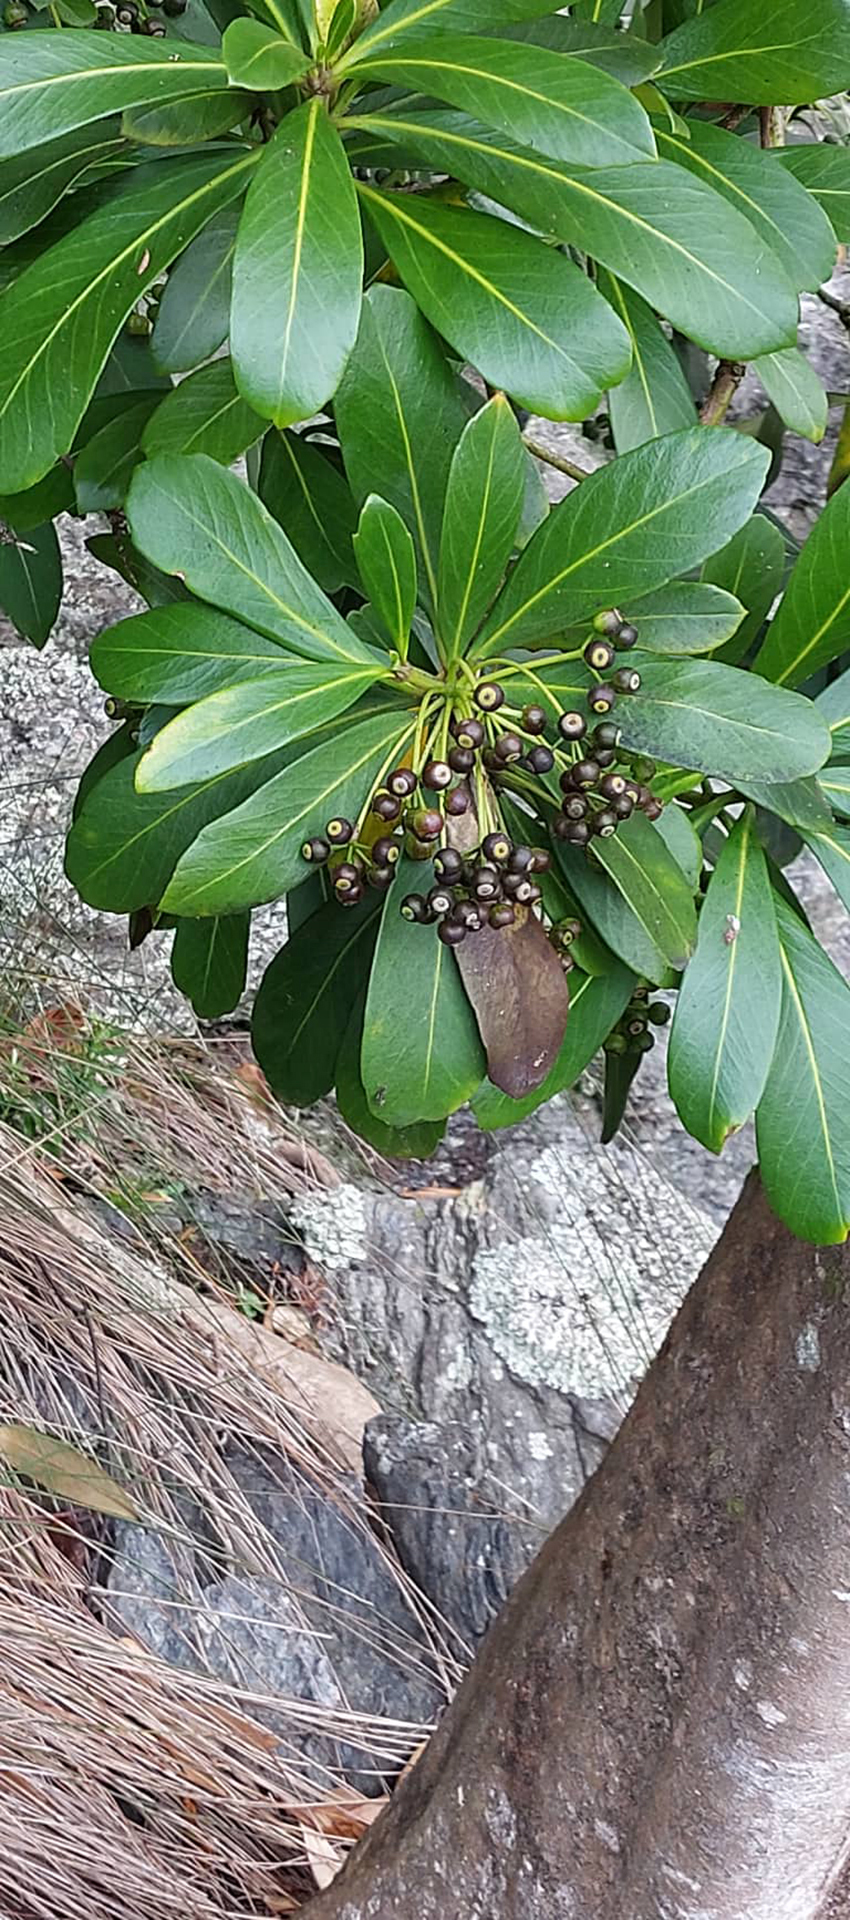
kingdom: Plantae
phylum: Tracheophyta
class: Magnoliopsida
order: Apiales
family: Araliaceae
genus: Pseudopanax
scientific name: Pseudopanax chathamicus
